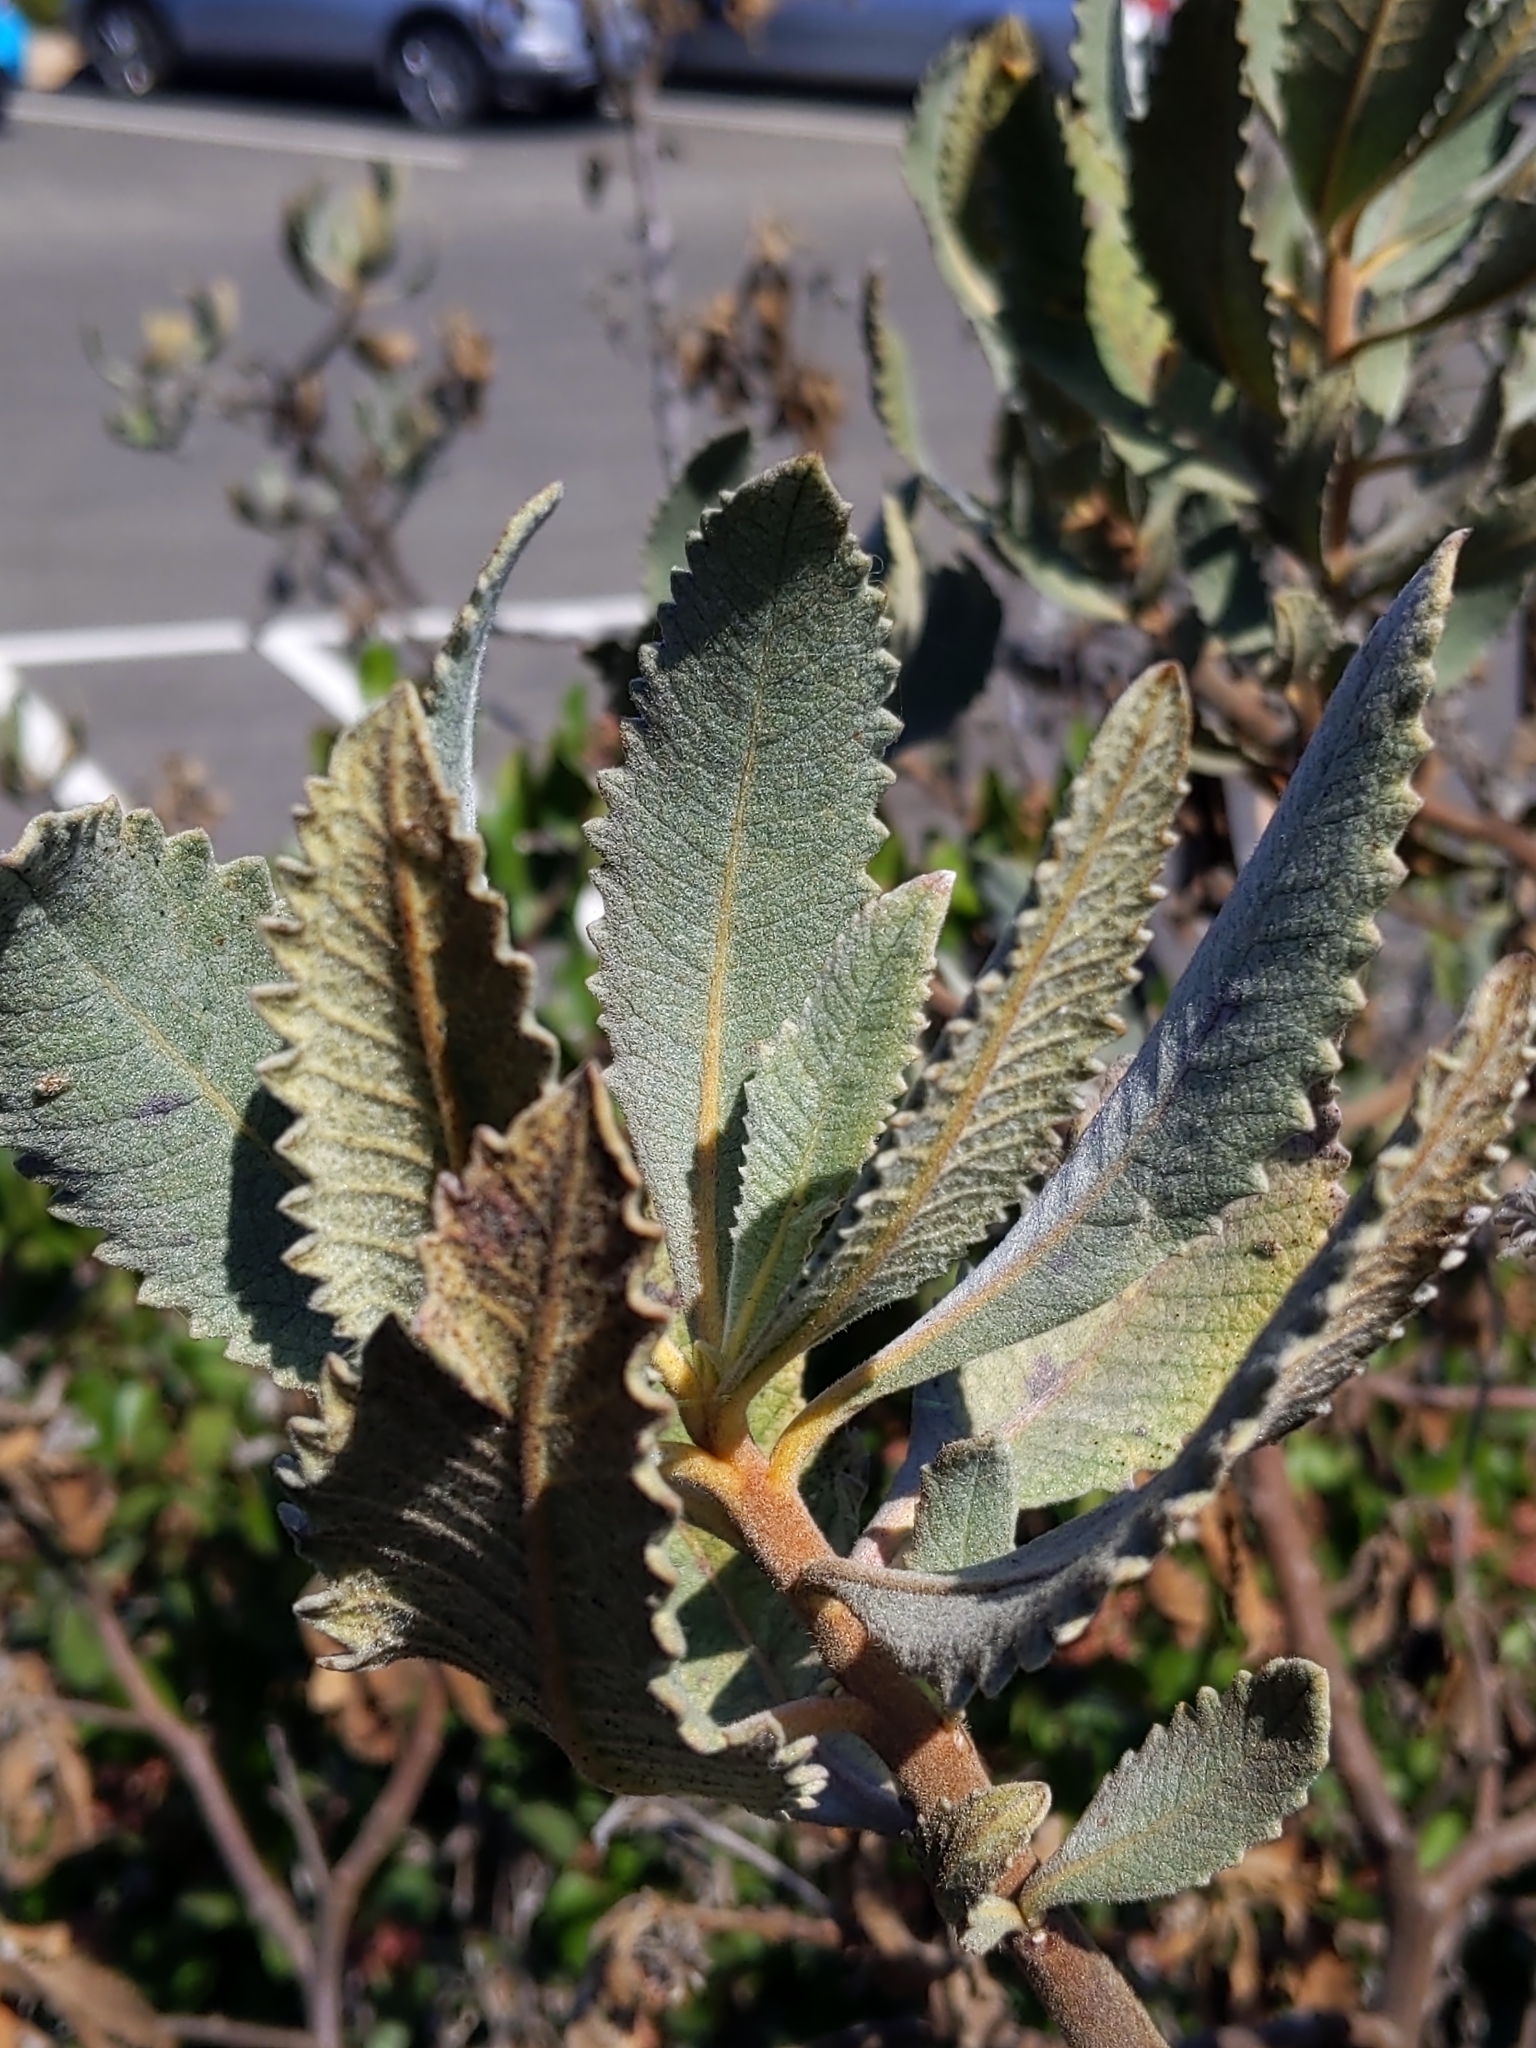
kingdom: Plantae
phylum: Tracheophyta
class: Magnoliopsida
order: Boraginales
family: Namaceae
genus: Eriodictyon
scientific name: Eriodictyon crassifolium
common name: Thick-leaf yerba-santa
